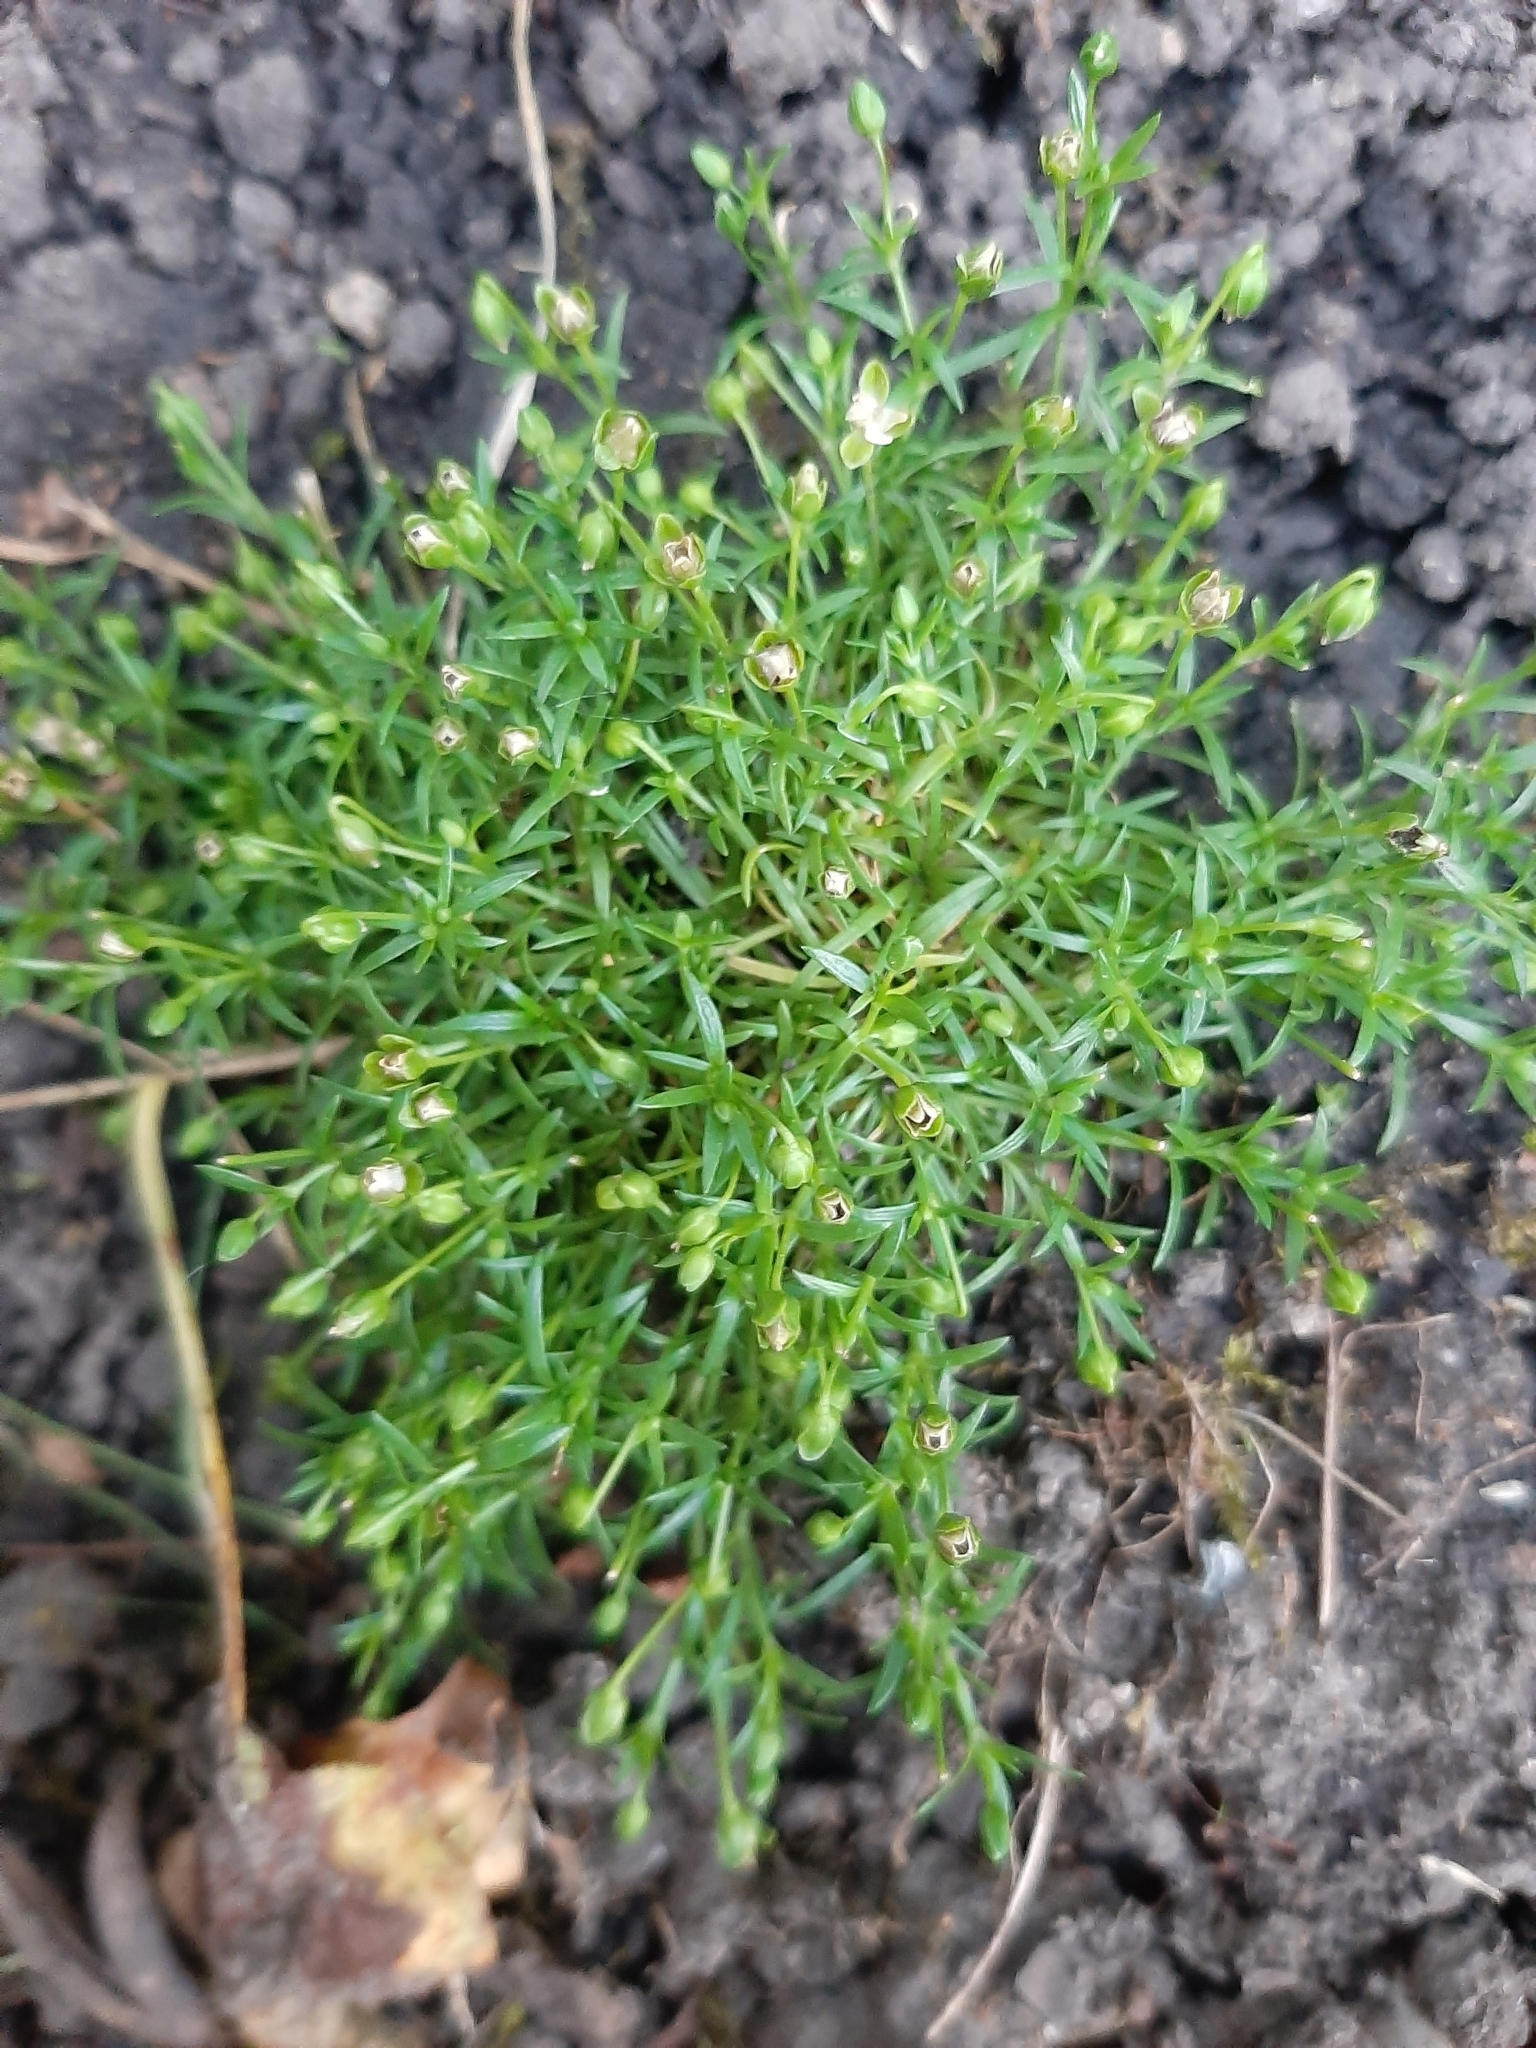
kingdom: Plantae
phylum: Tracheophyta
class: Magnoliopsida
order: Caryophyllales
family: Caryophyllaceae
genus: Sagina
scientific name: Sagina procumbens
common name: Procumbent pearlwort
